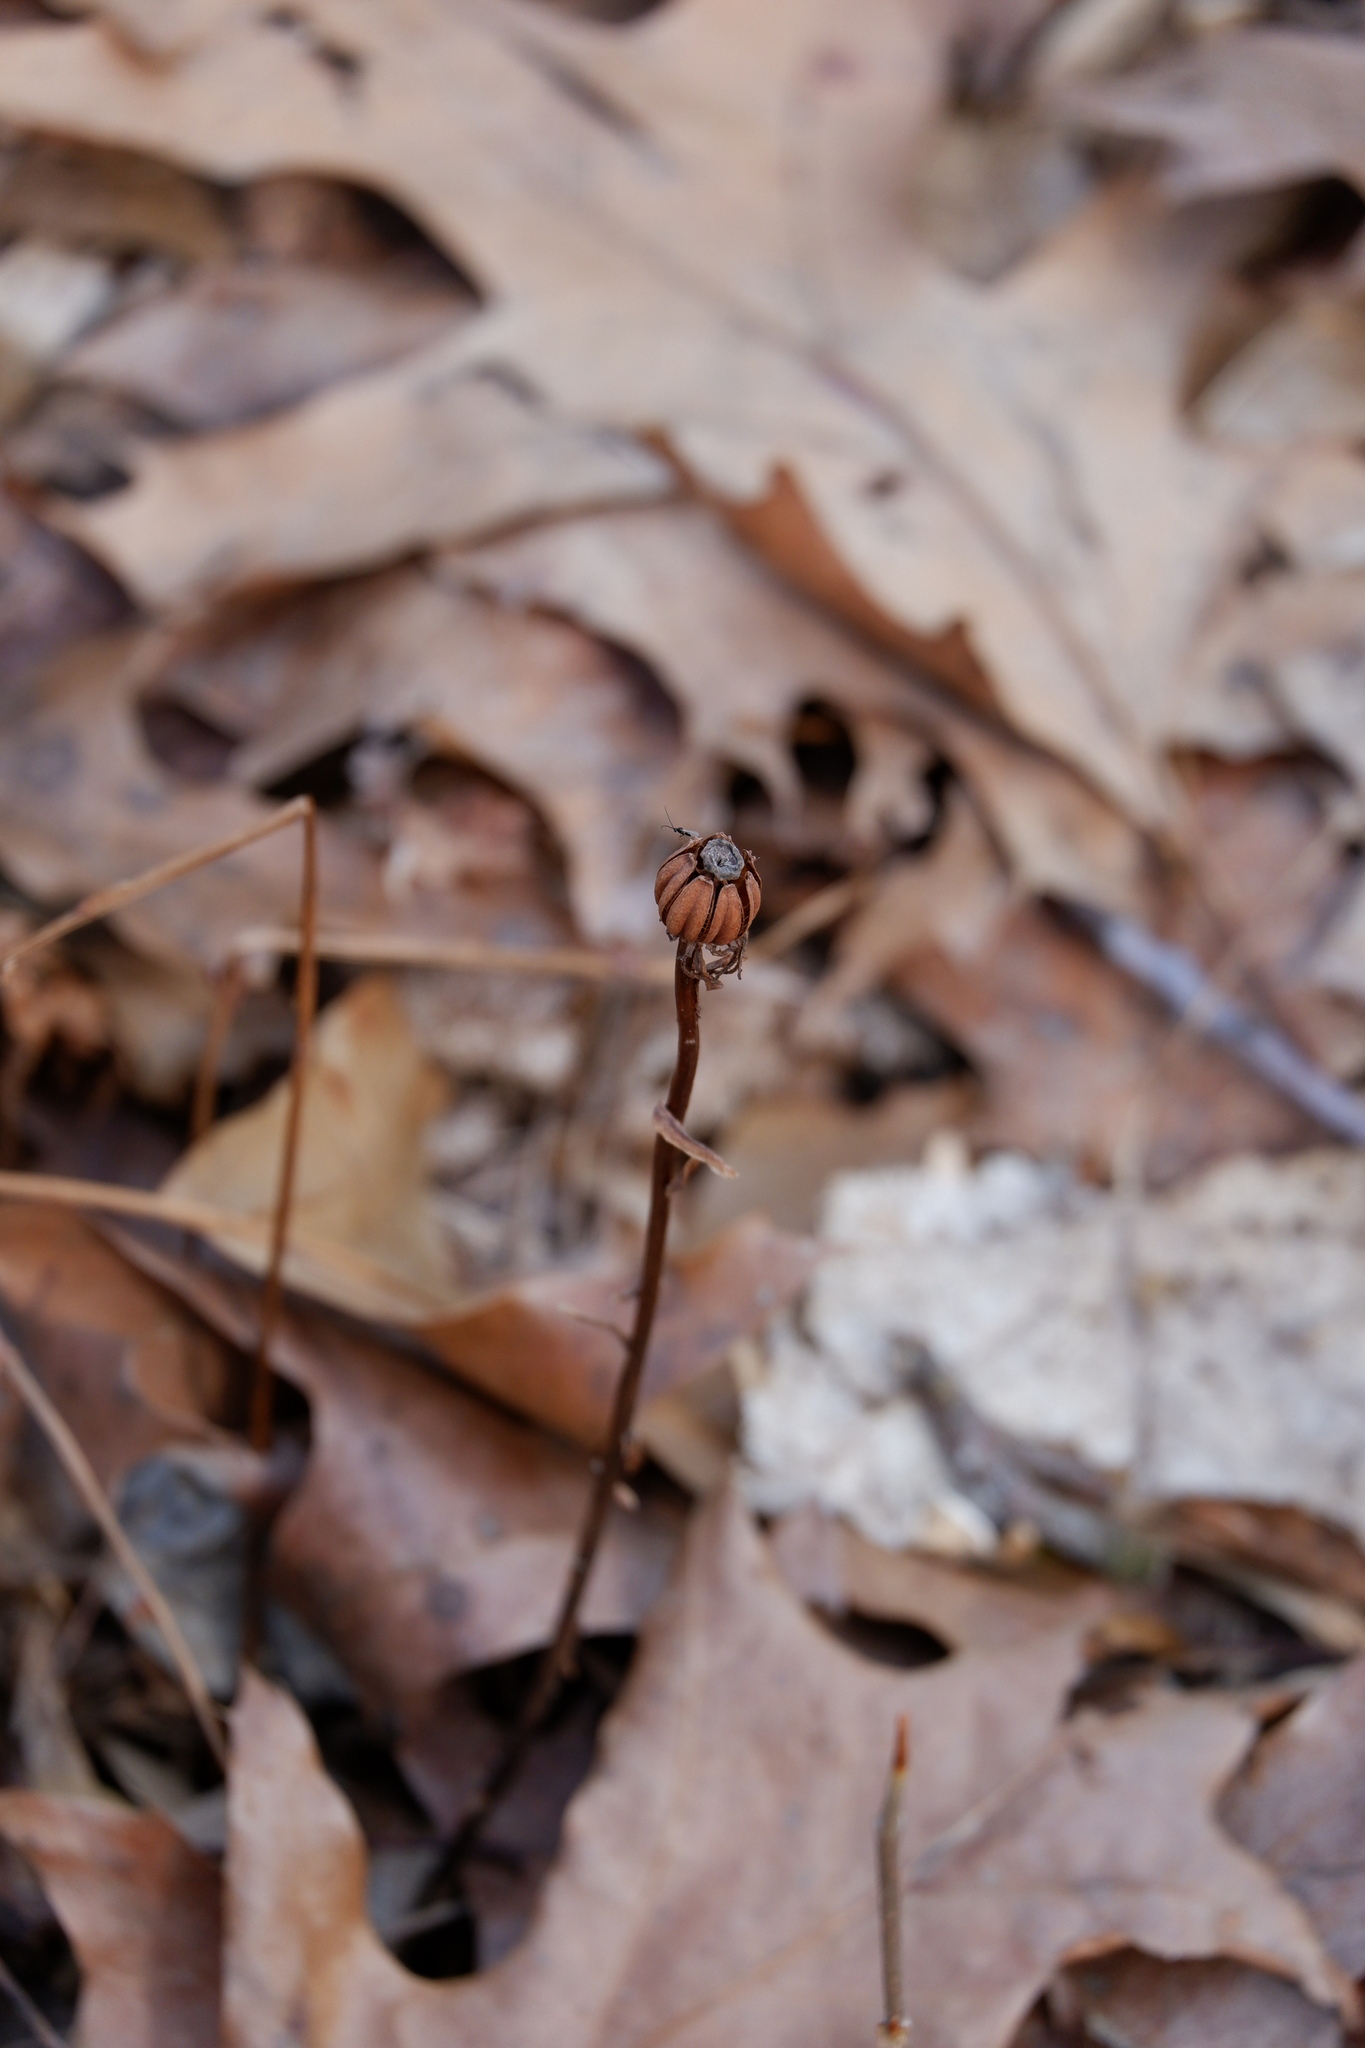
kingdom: Plantae
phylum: Tracheophyta
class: Magnoliopsida
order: Ericales
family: Ericaceae
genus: Monotropa
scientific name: Monotropa uniflora
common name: Convulsion root
